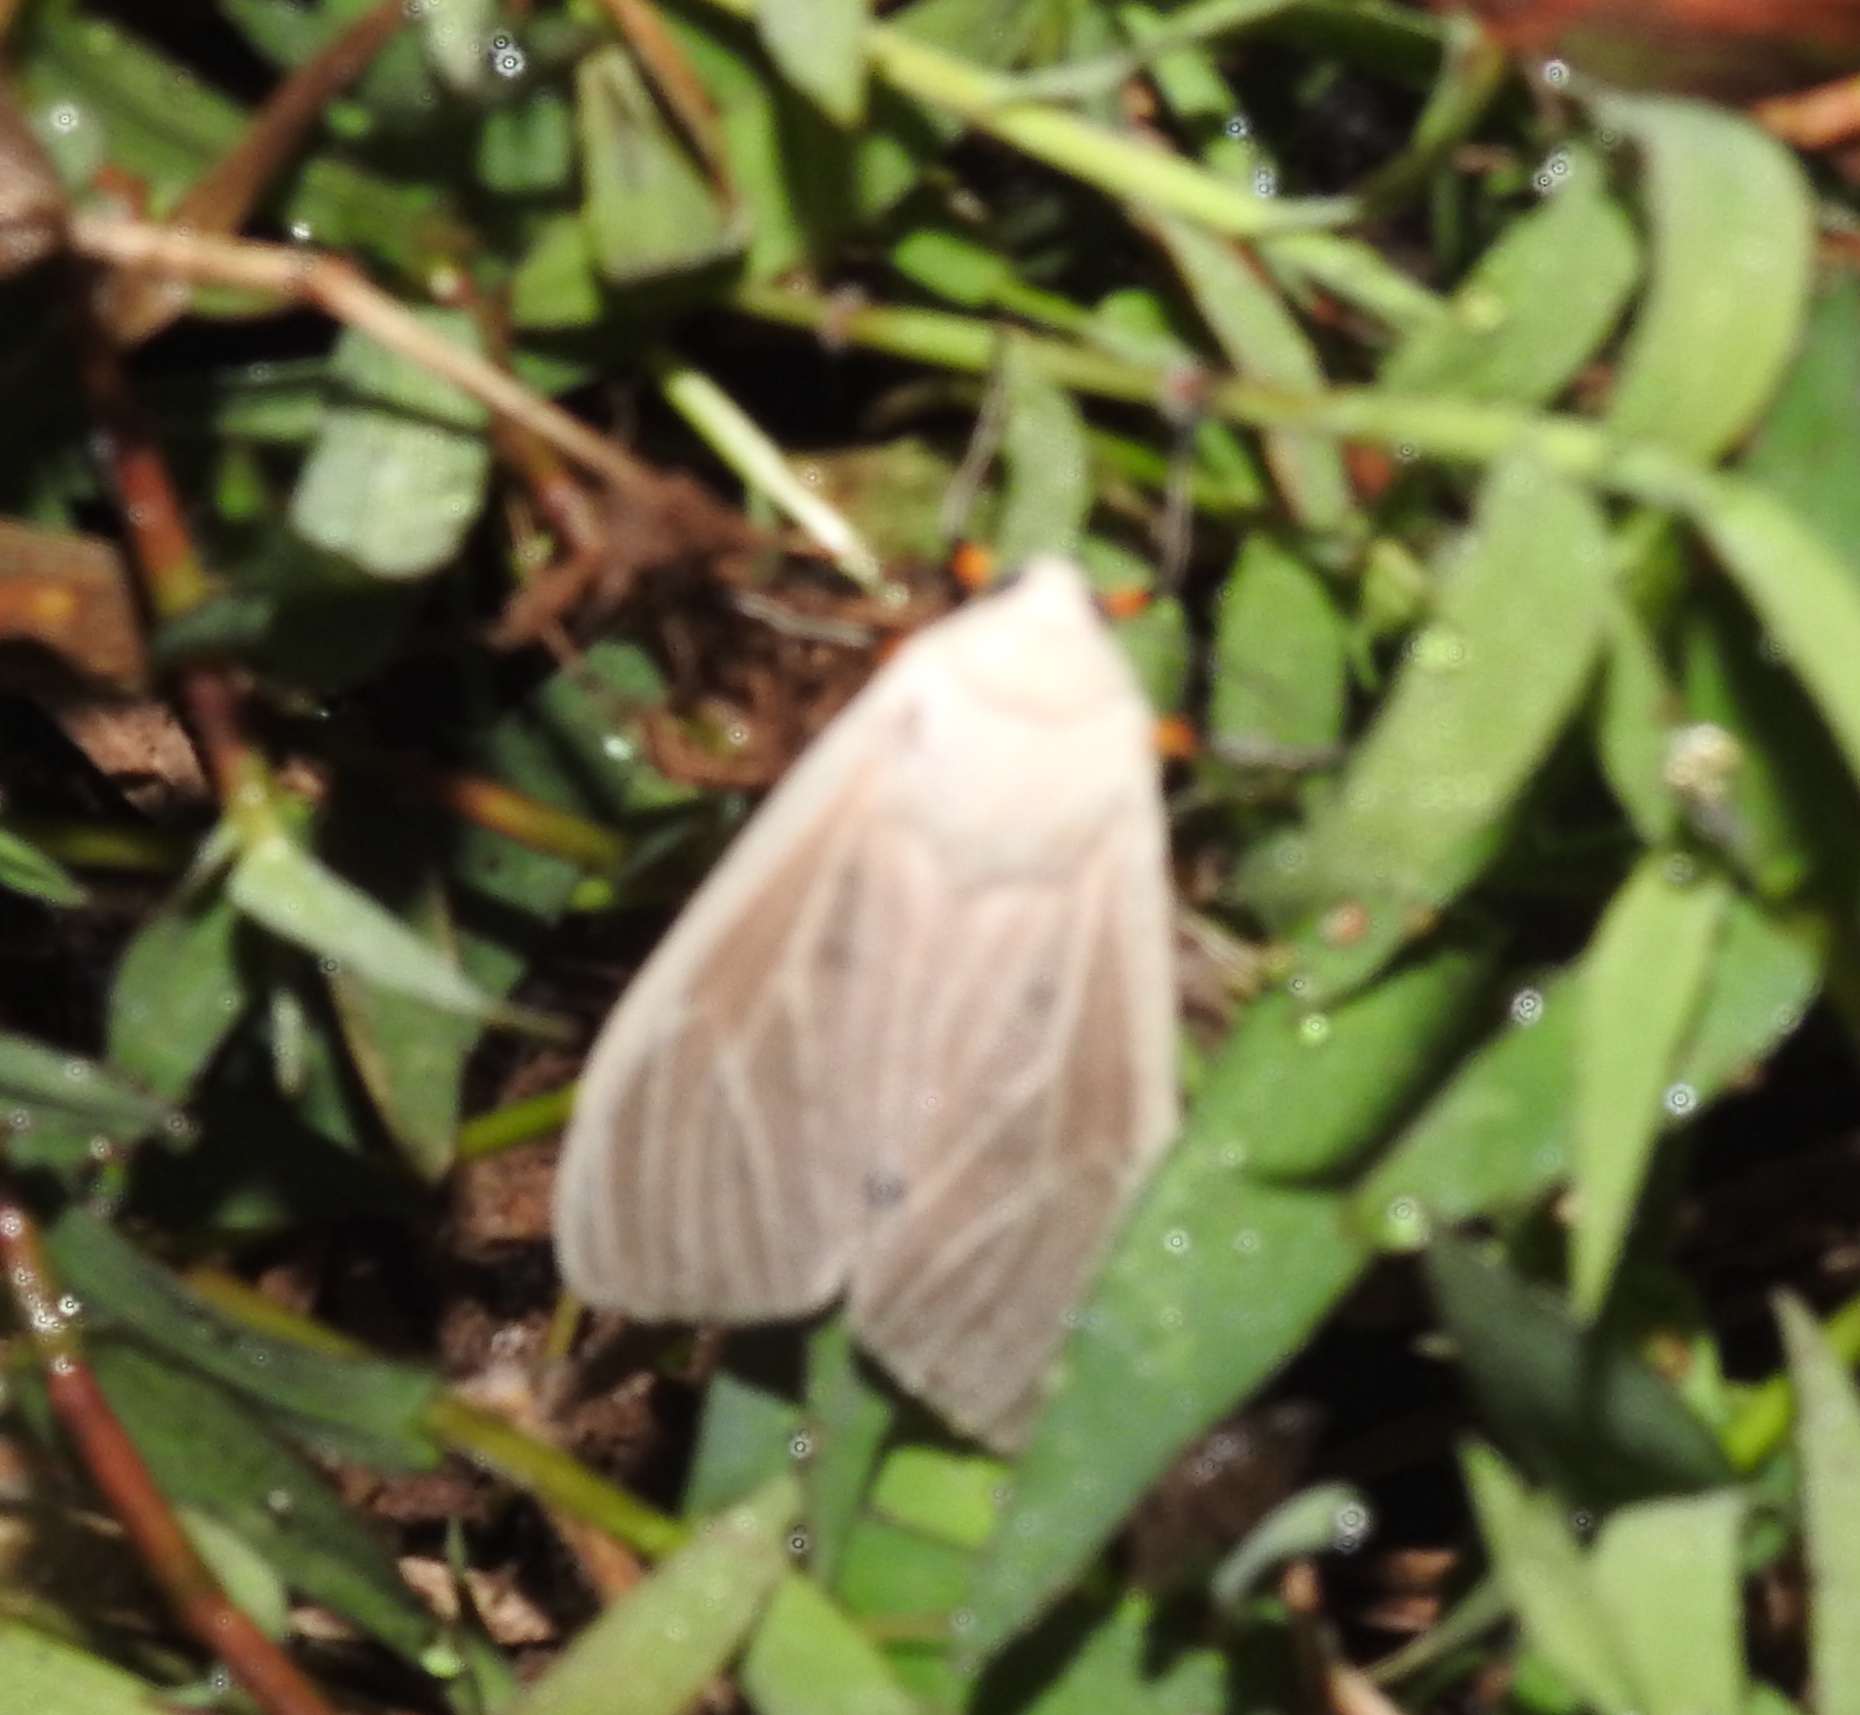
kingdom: Animalia
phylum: Arthropoda
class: Insecta
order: Lepidoptera
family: Erebidae
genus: Creatonotos
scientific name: Creatonotos transiens
